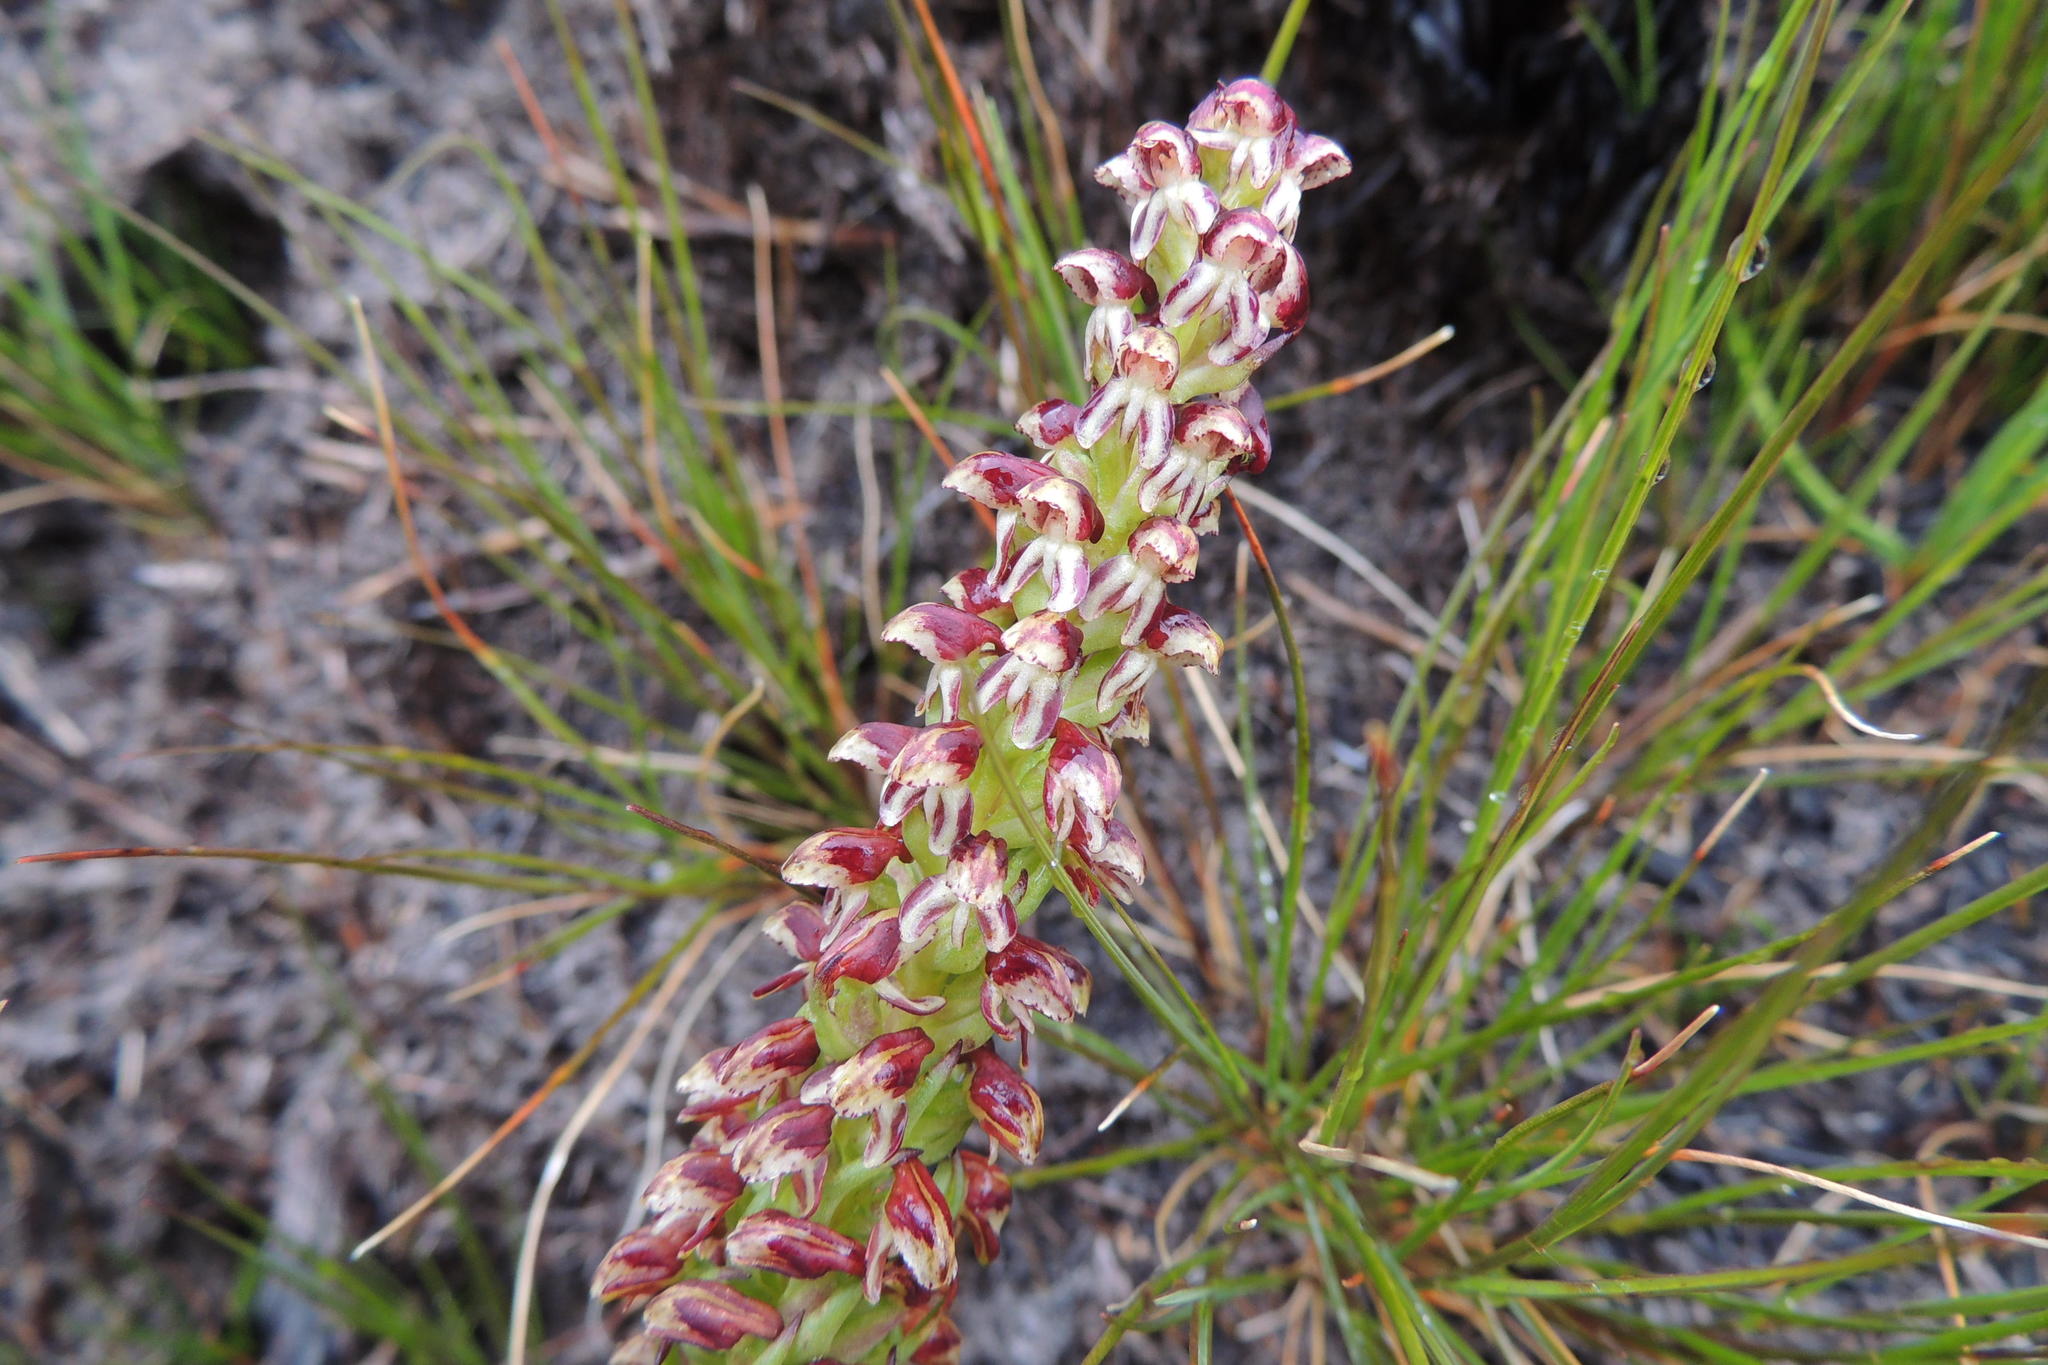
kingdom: Plantae
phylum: Tracheophyta
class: Liliopsida
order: Asparagales
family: Orchidaceae
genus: Disa
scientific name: Disa obtusa
